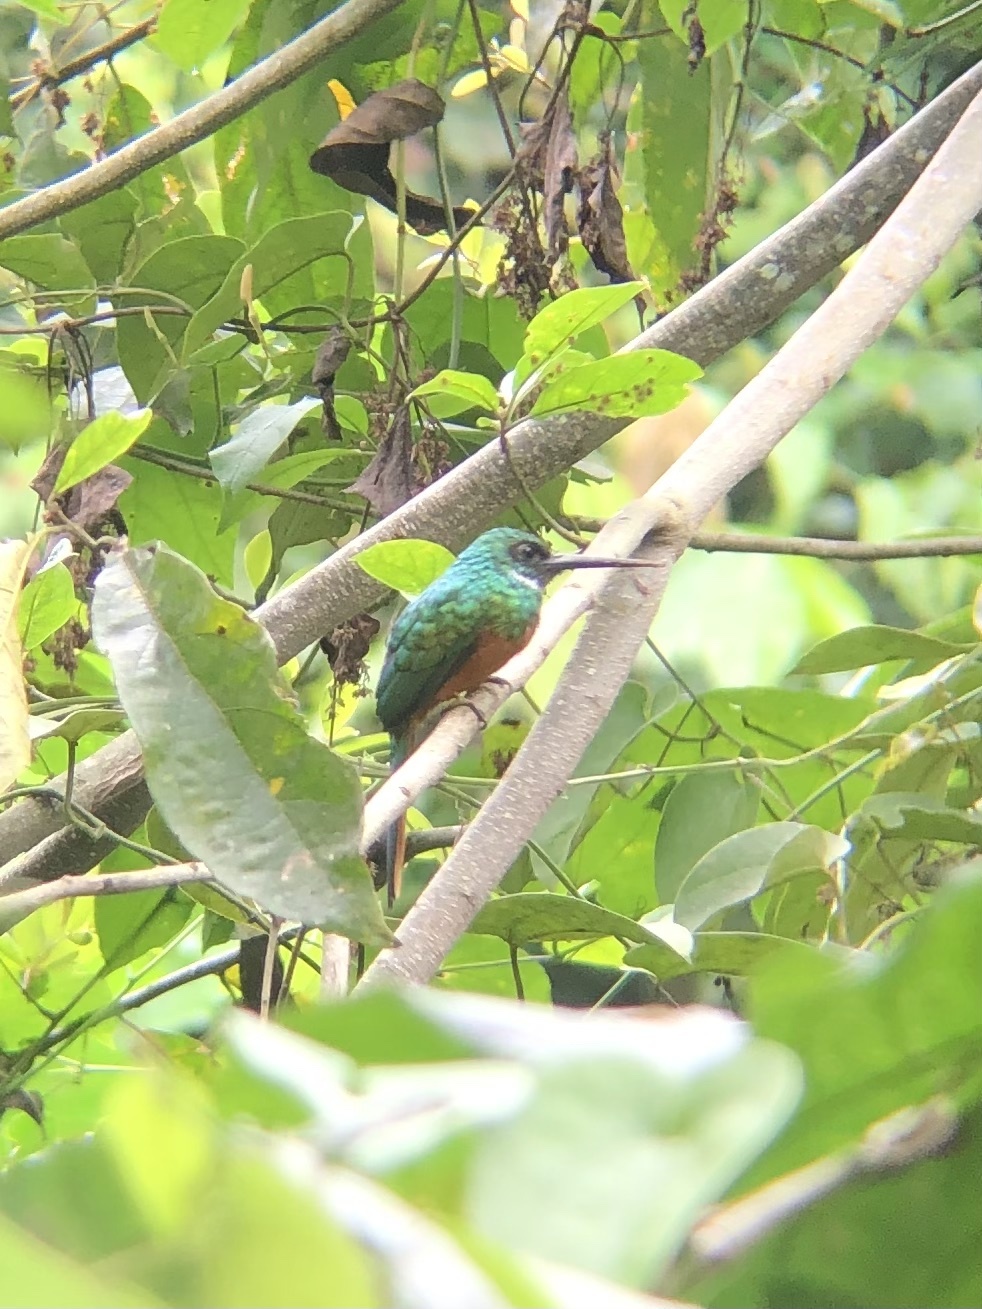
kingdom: Animalia
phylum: Chordata
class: Aves
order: Piciformes
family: Galbulidae
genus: Galbula
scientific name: Galbula ruficauda
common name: Rufous-tailed jacamar
